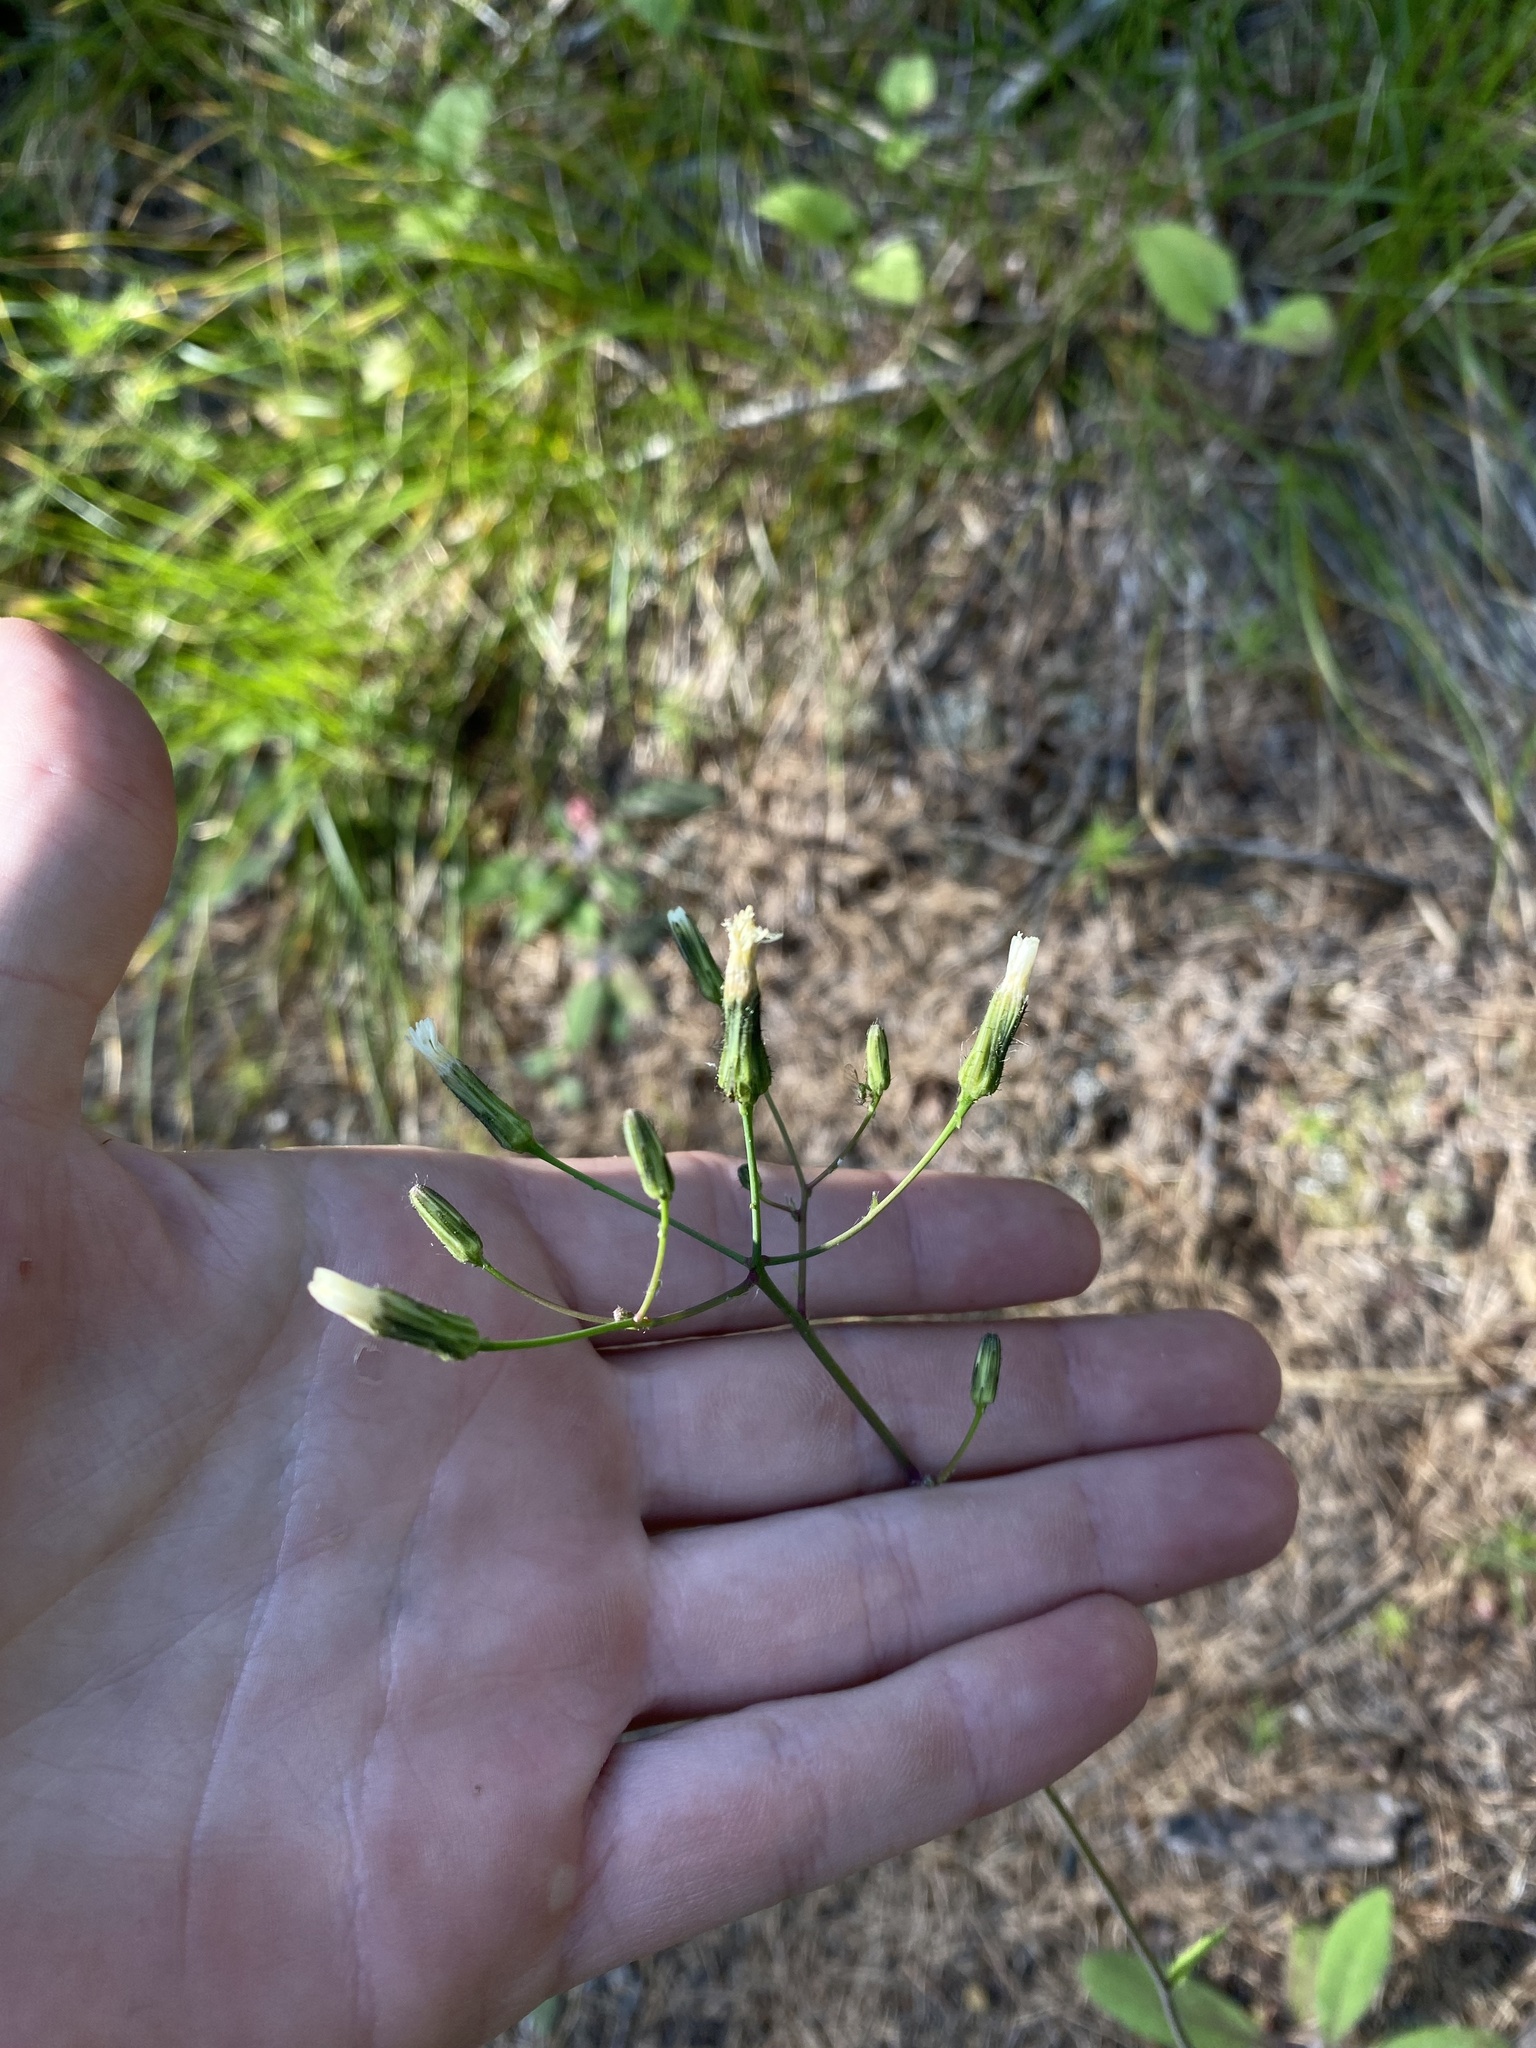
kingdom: Plantae
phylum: Tracheophyta
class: Magnoliopsida
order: Asterales
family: Asteraceae
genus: Hieracium
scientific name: Hieracium albiflorum
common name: White hawkweed
